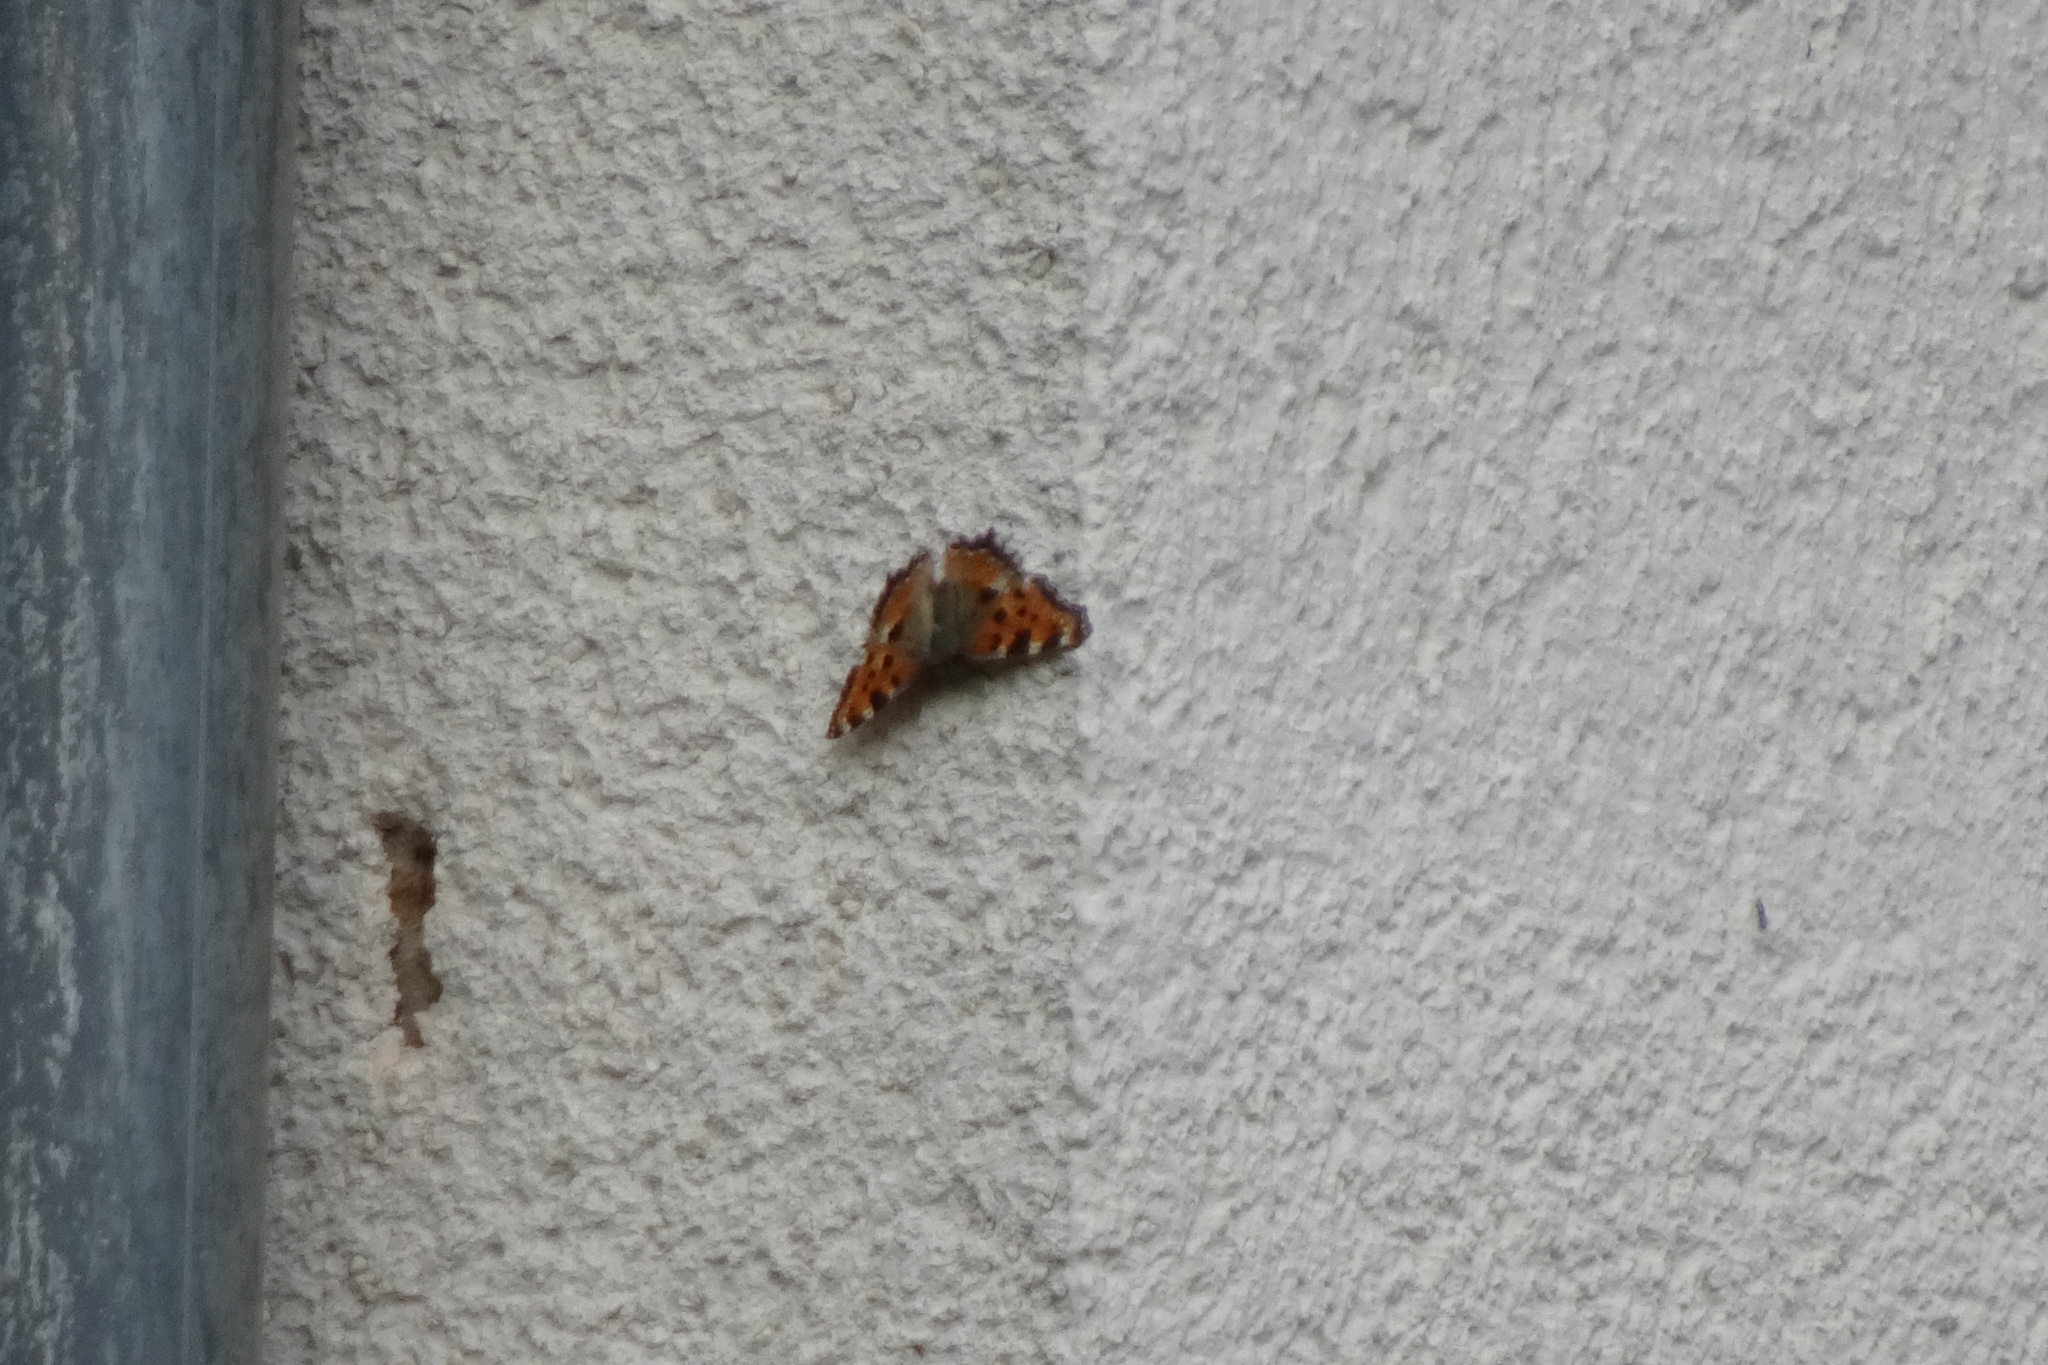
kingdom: Animalia
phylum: Arthropoda
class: Insecta
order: Lepidoptera
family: Nymphalidae
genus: Nymphalis
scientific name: Nymphalis polychloros
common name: Large tortoiseshell
